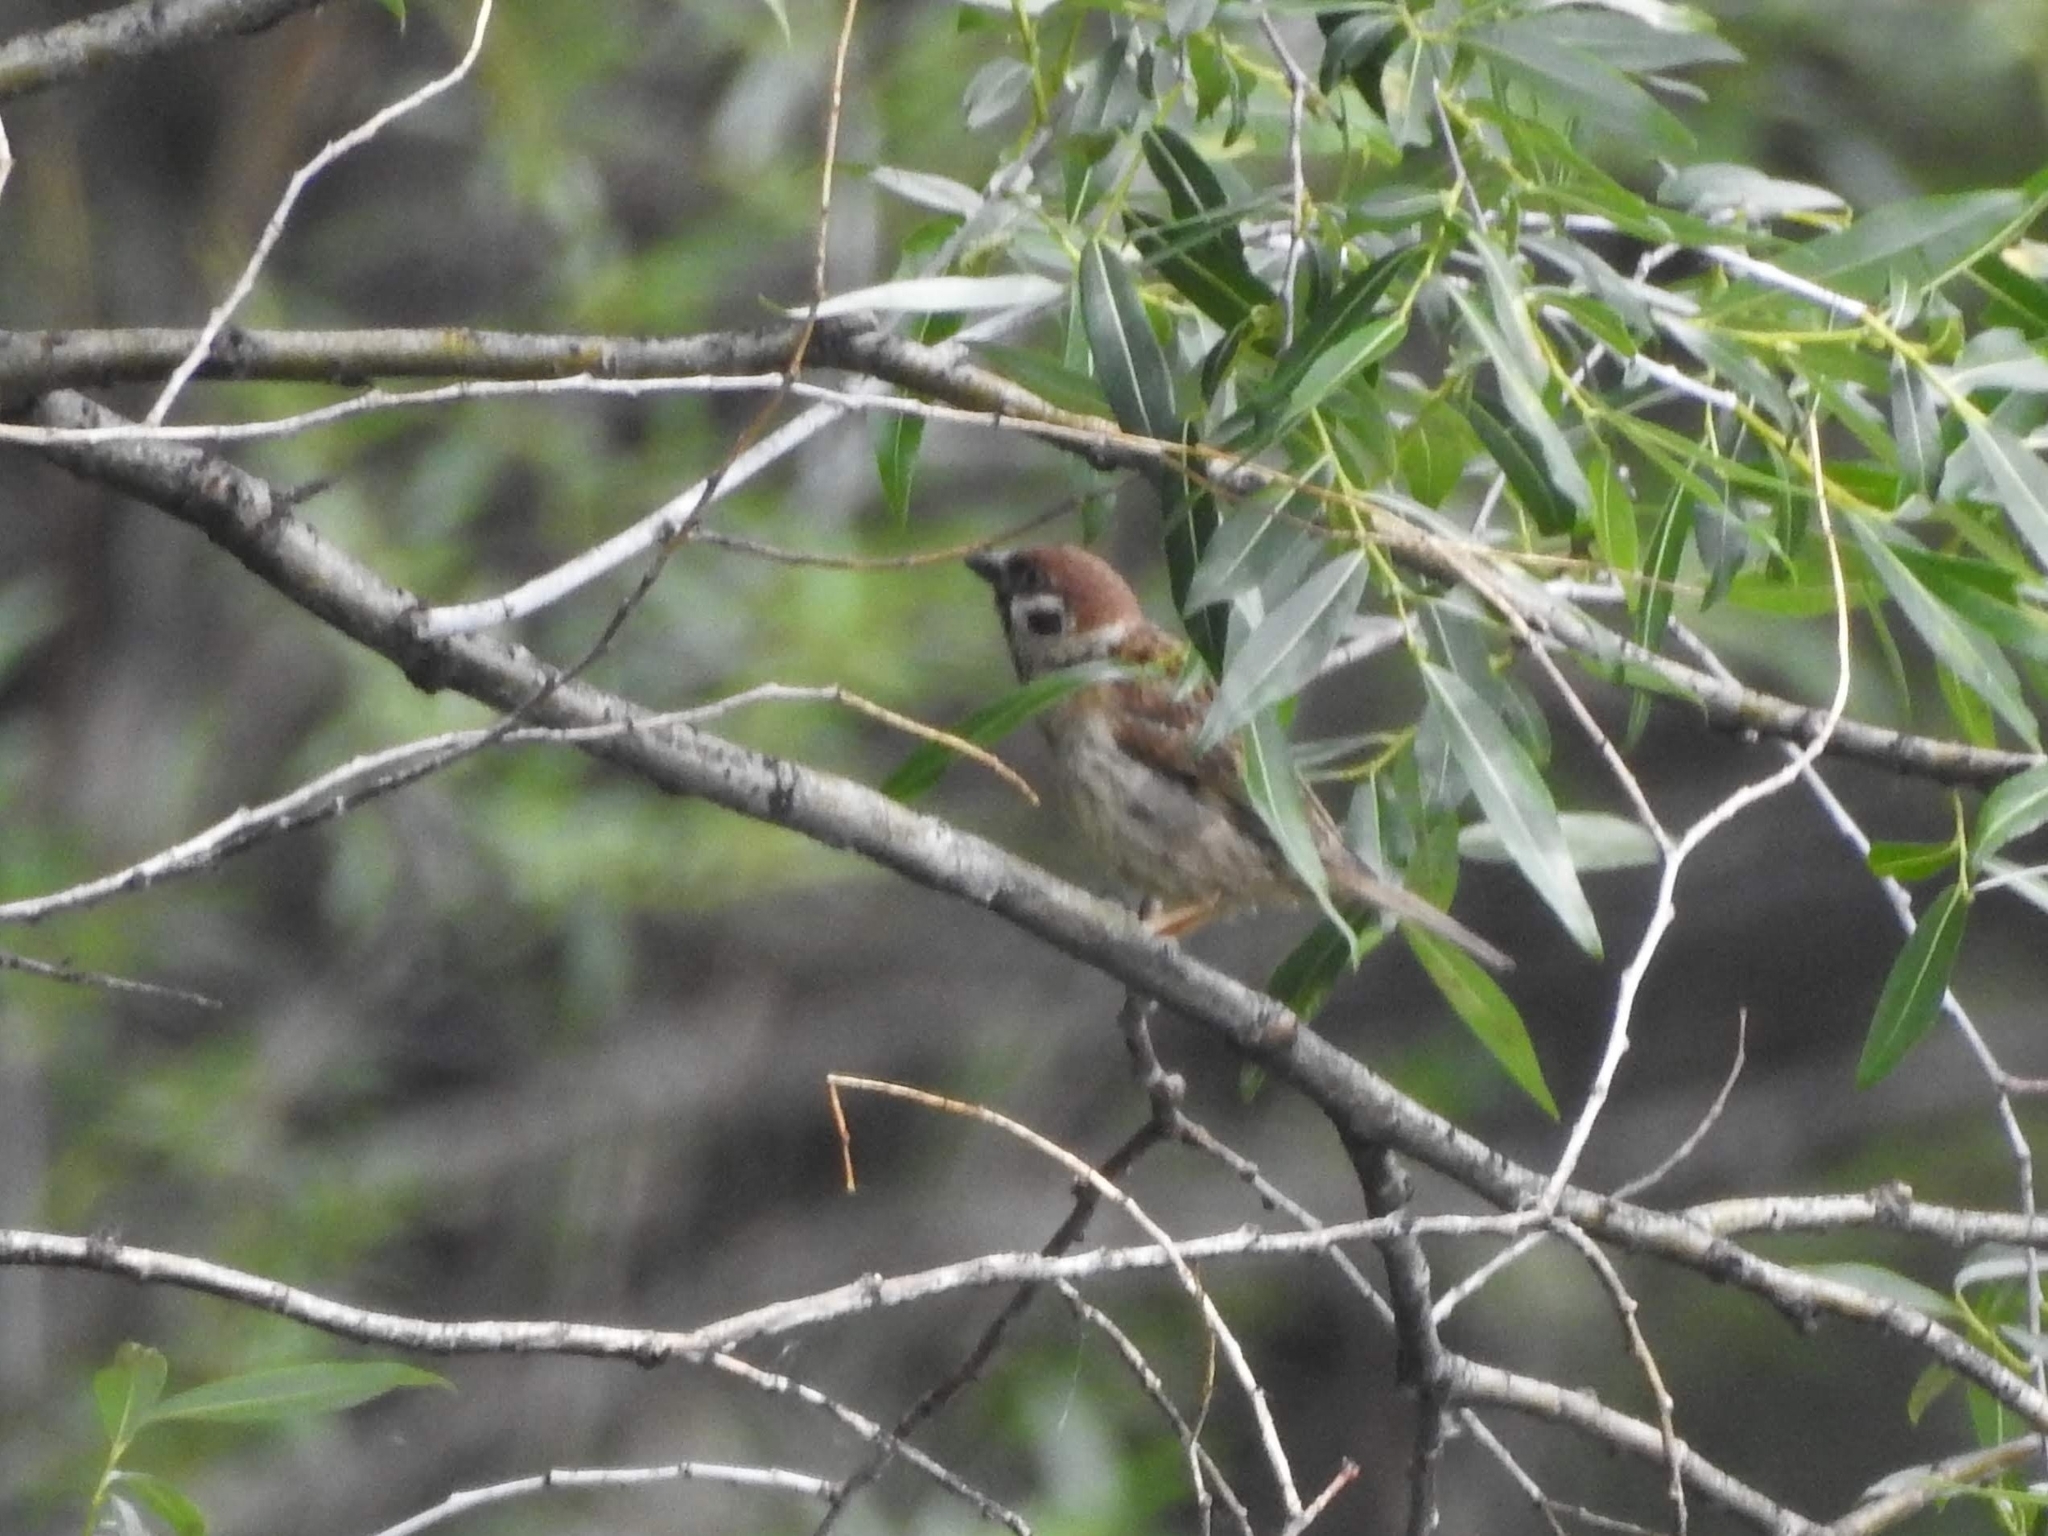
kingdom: Animalia
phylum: Chordata
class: Aves
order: Passeriformes
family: Passeridae
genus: Passer
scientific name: Passer montanus
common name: Eurasian tree sparrow
